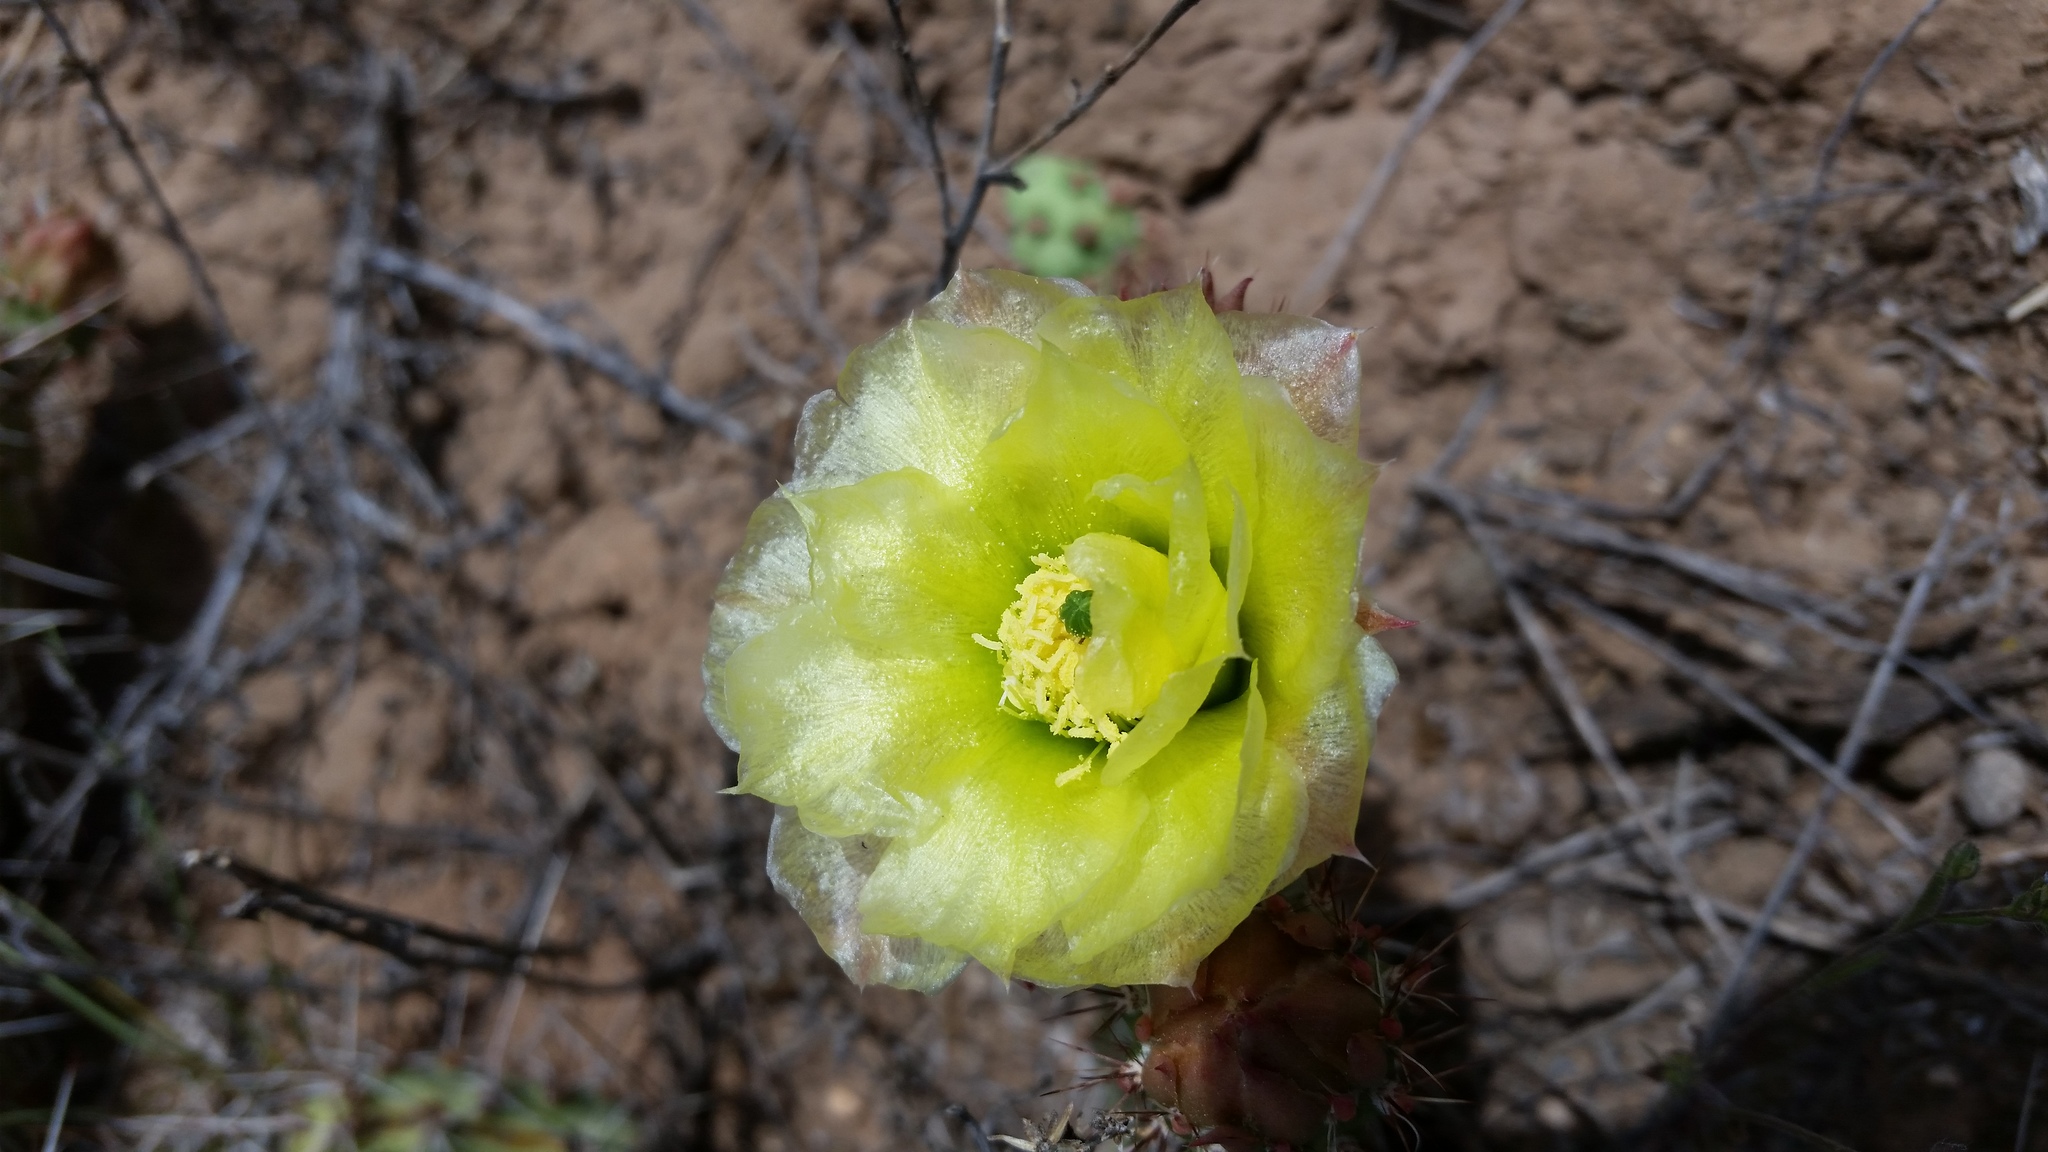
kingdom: Plantae
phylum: Tracheophyta
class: Magnoliopsida
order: Caryophyllales
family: Cactaceae
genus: Opuntia
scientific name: Opuntia polyacantha
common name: Plains prickly-pear
